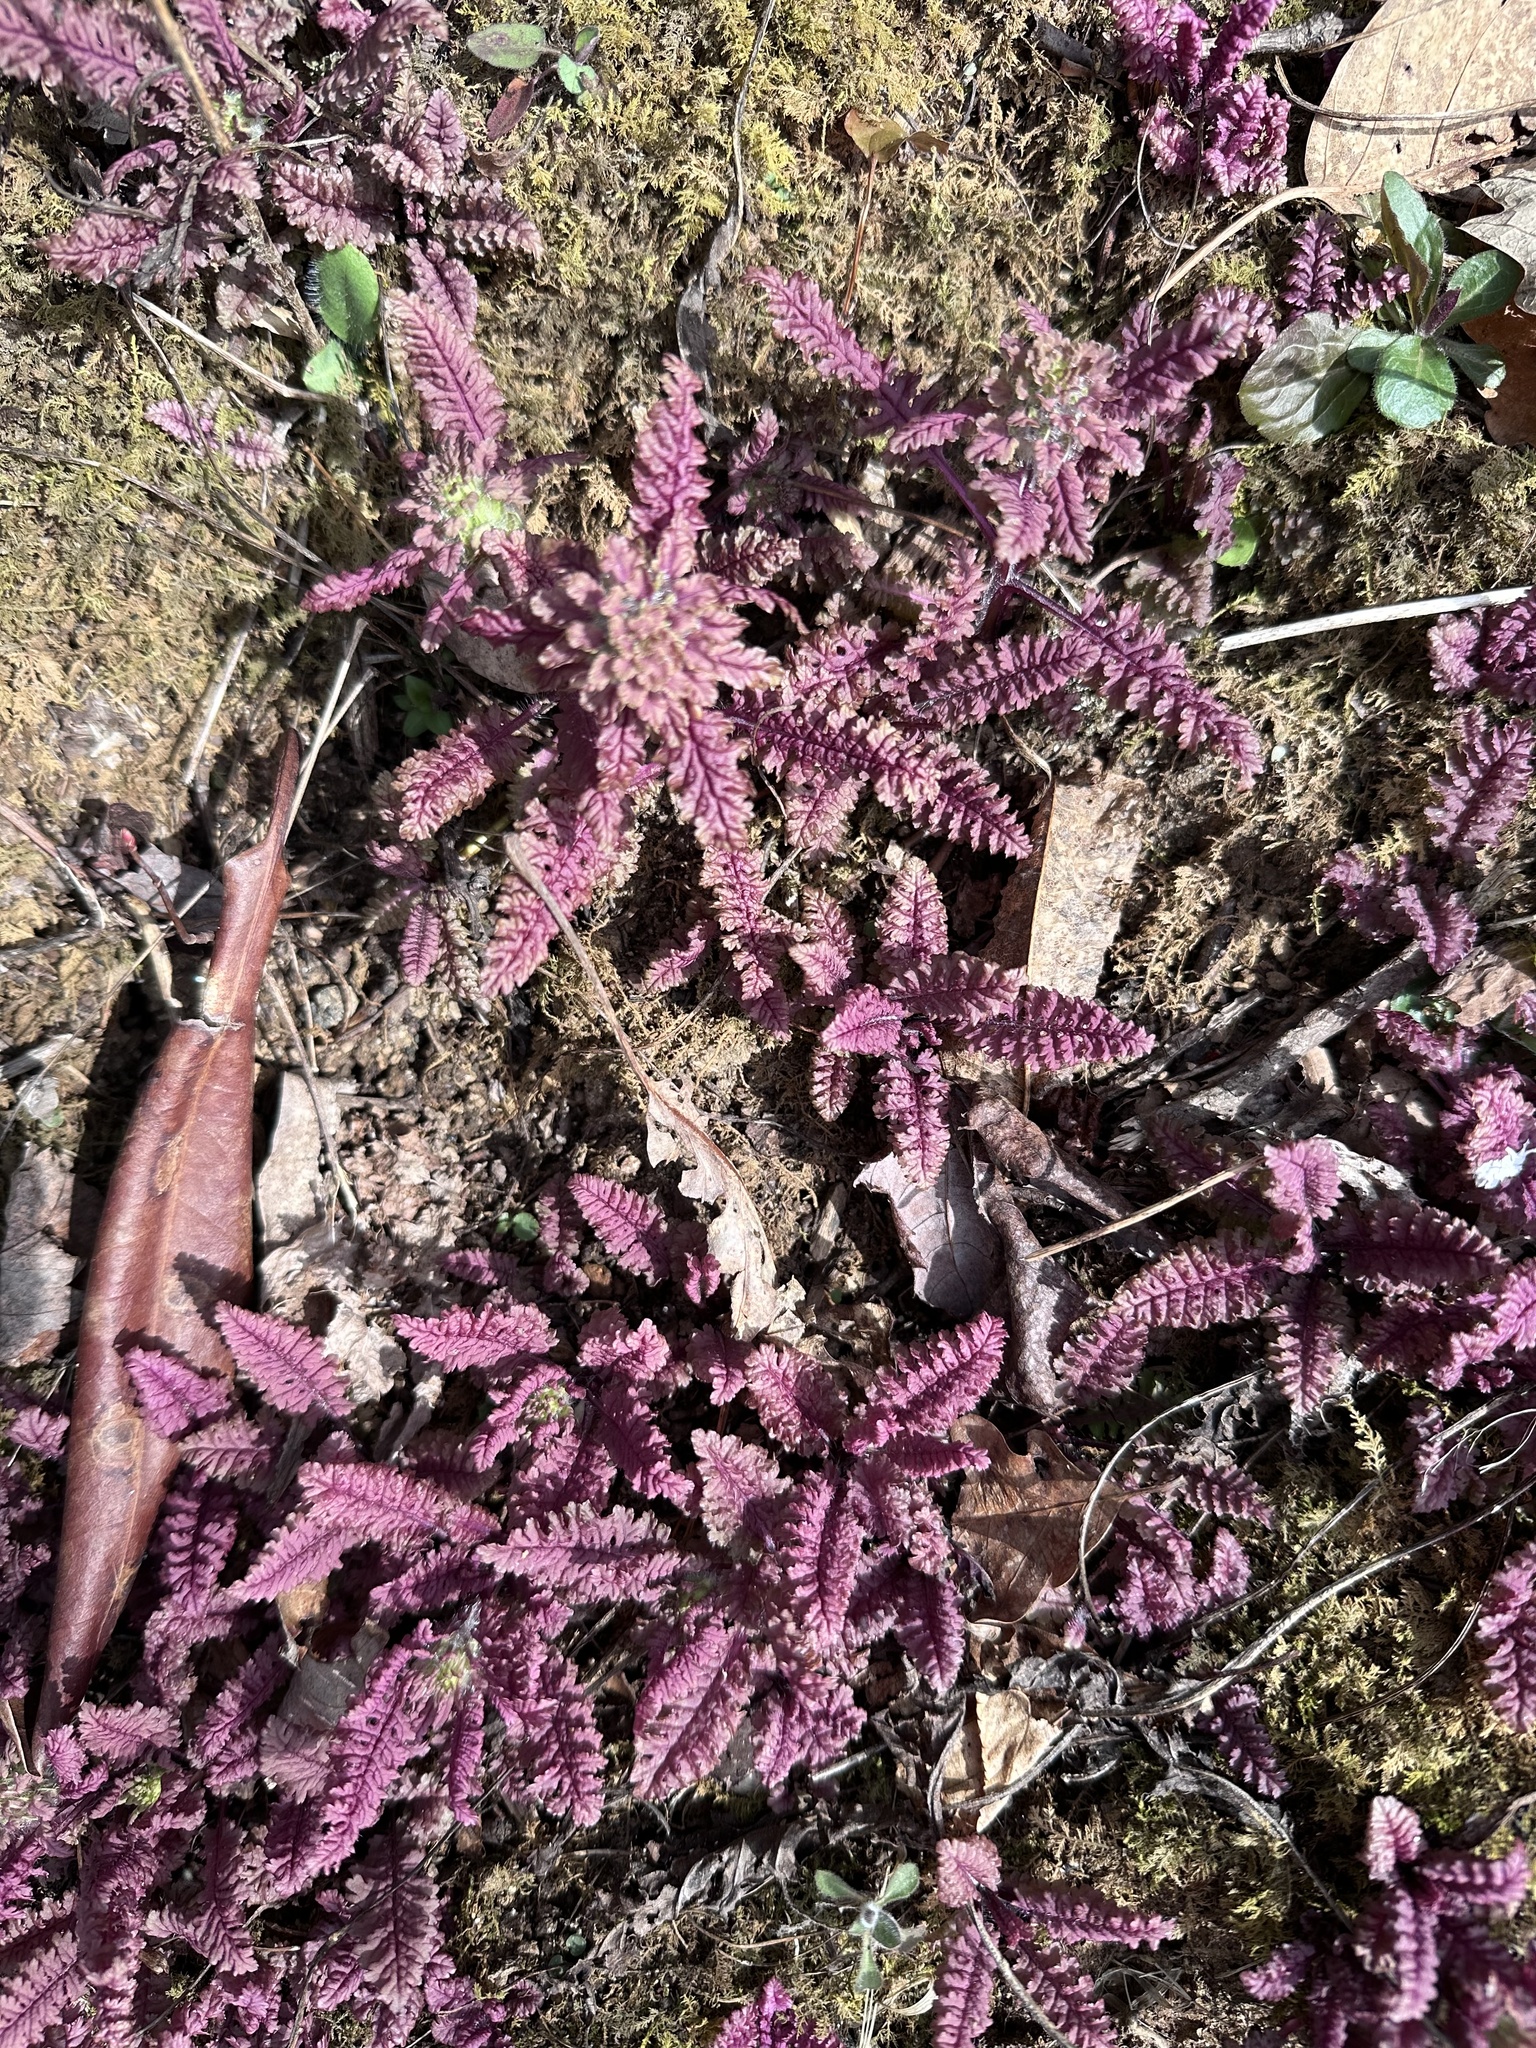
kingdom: Plantae
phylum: Tracheophyta
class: Magnoliopsida
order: Lamiales
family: Orobanchaceae
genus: Pedicularis
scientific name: Pedicularis canadensis
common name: Early lousewort
